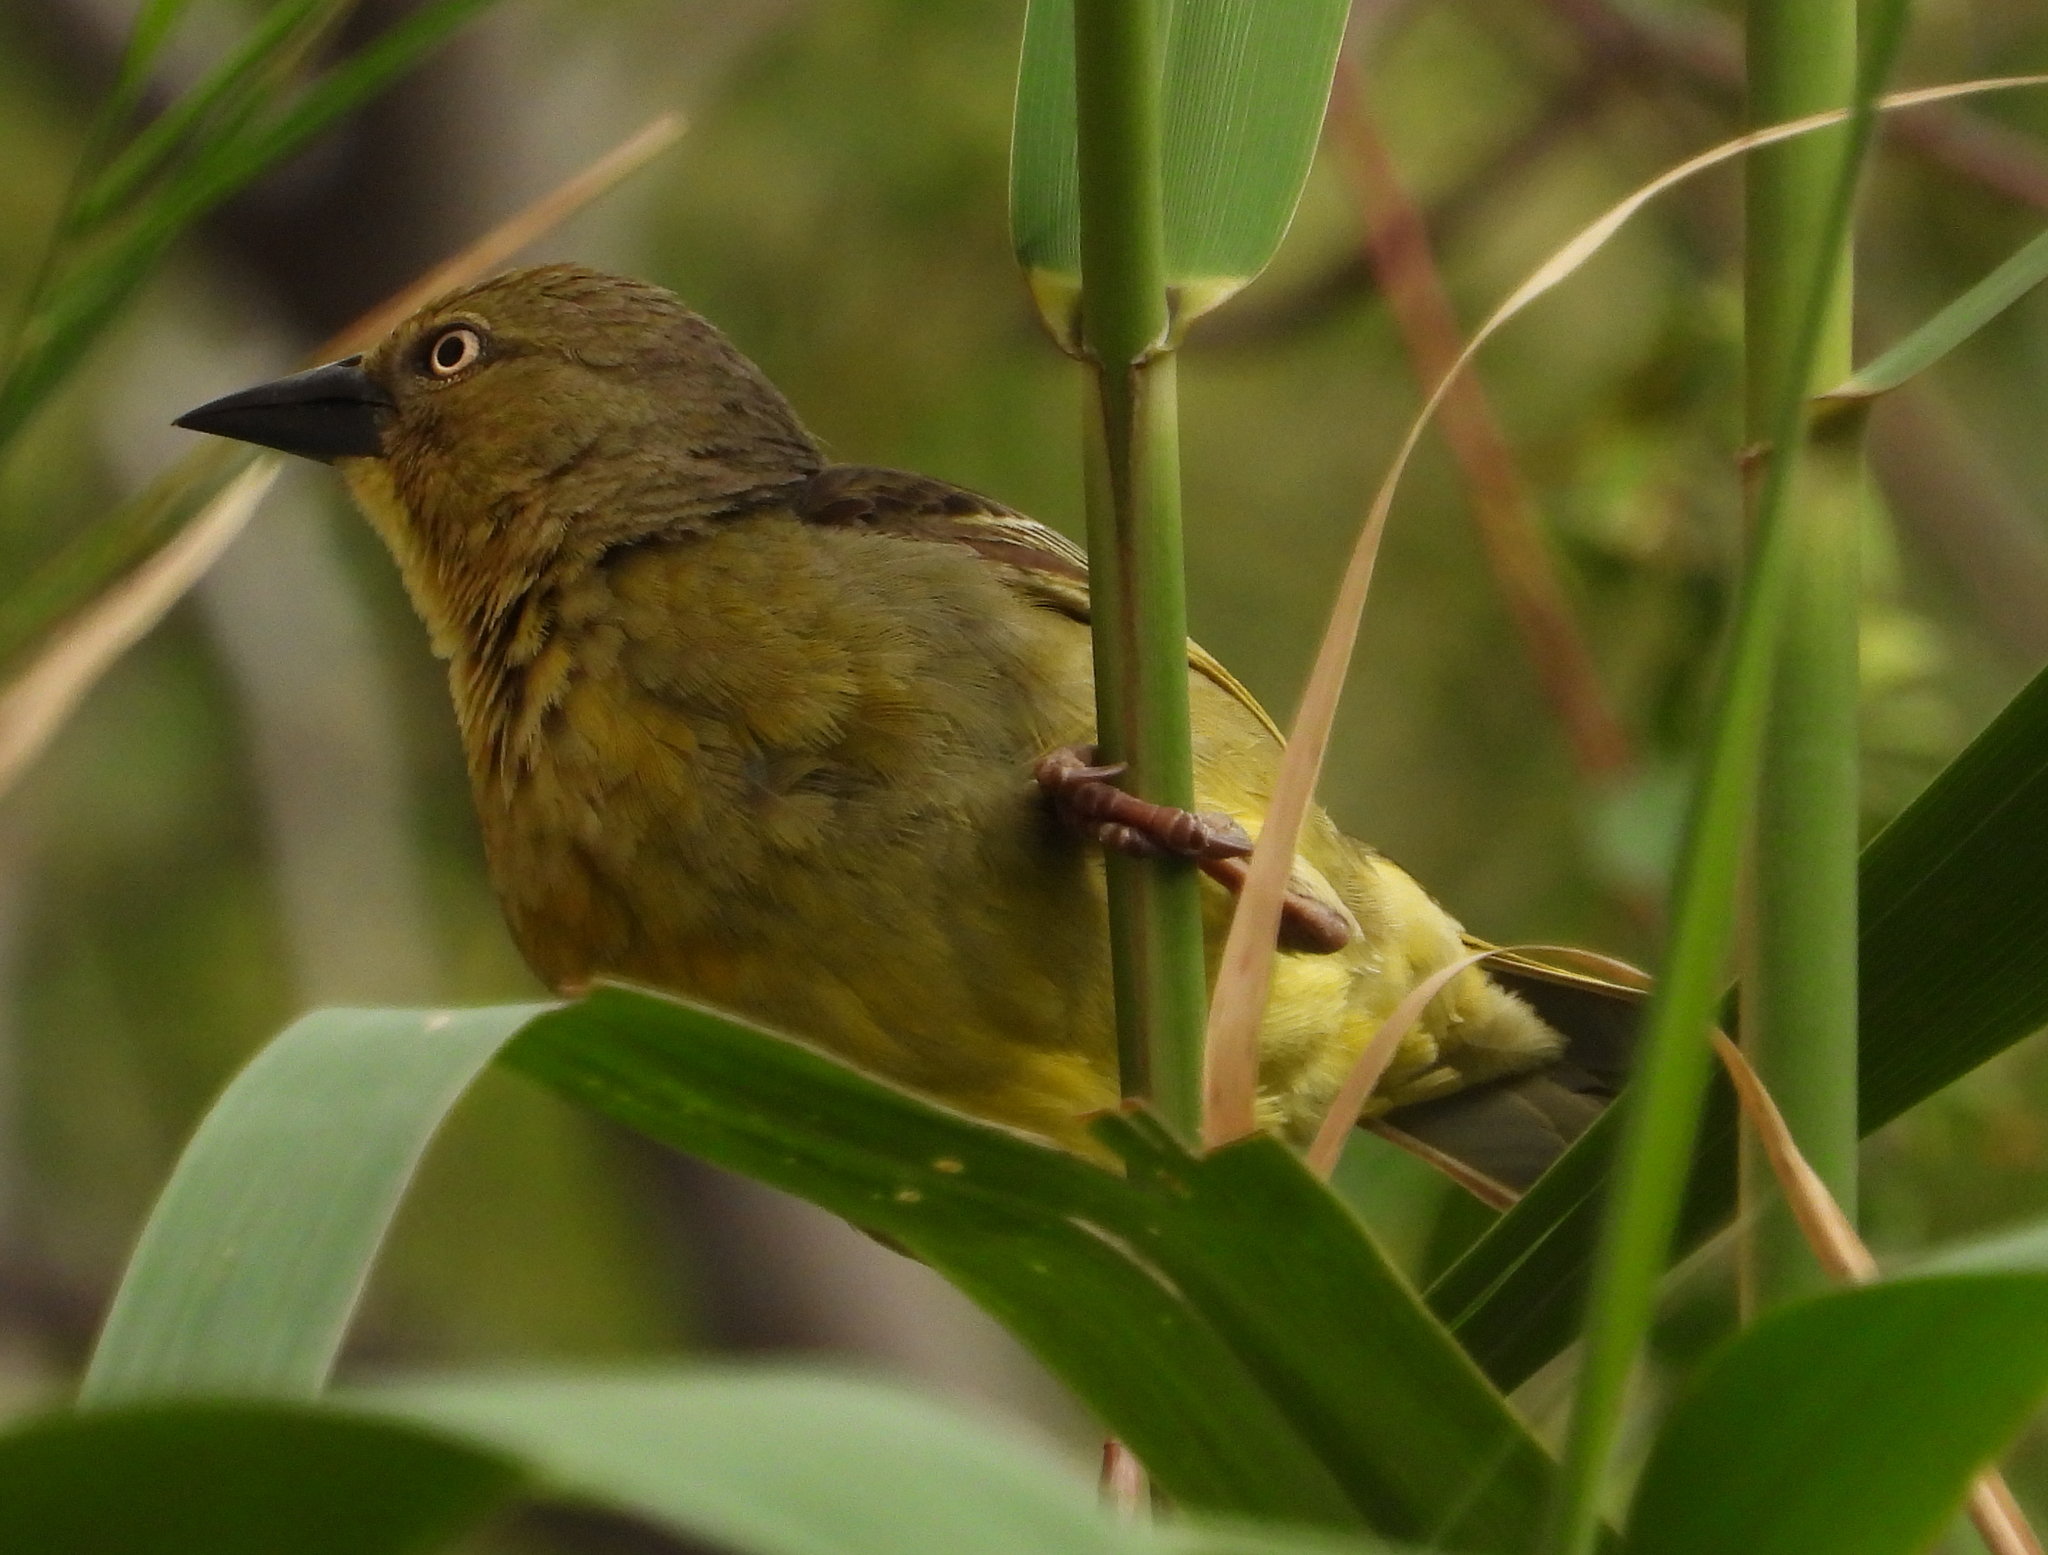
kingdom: Animalia
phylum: Chordata
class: Aves
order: Passeriformes
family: Ploceidae
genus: Ploceus
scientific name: Ploceus capensis
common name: Cape weaver
